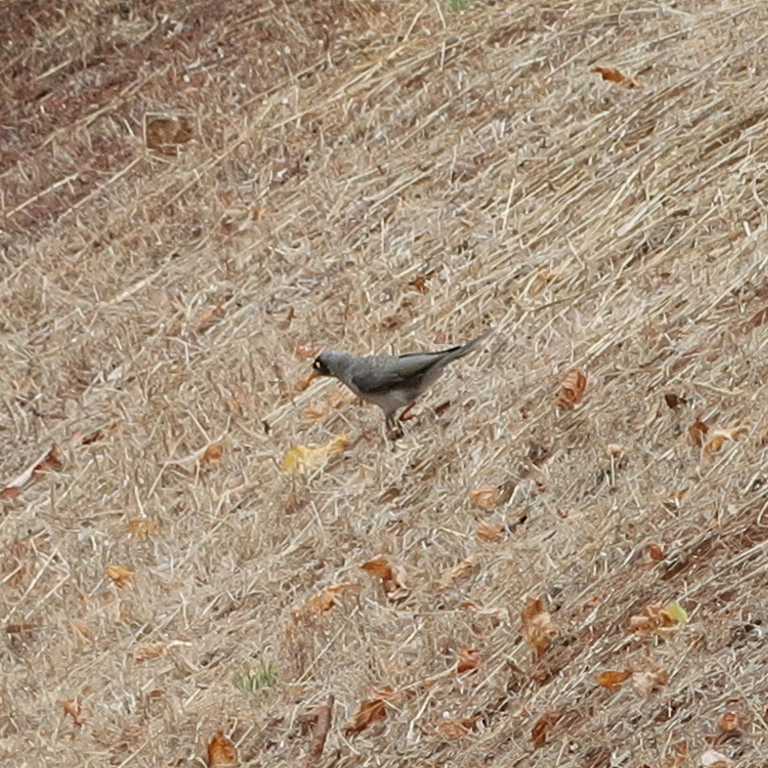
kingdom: Animalia
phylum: Chordata
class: Aves
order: Passeriformes
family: Meliphagidae
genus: Manorina
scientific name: Manorina melanocephala
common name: Noisy miner
